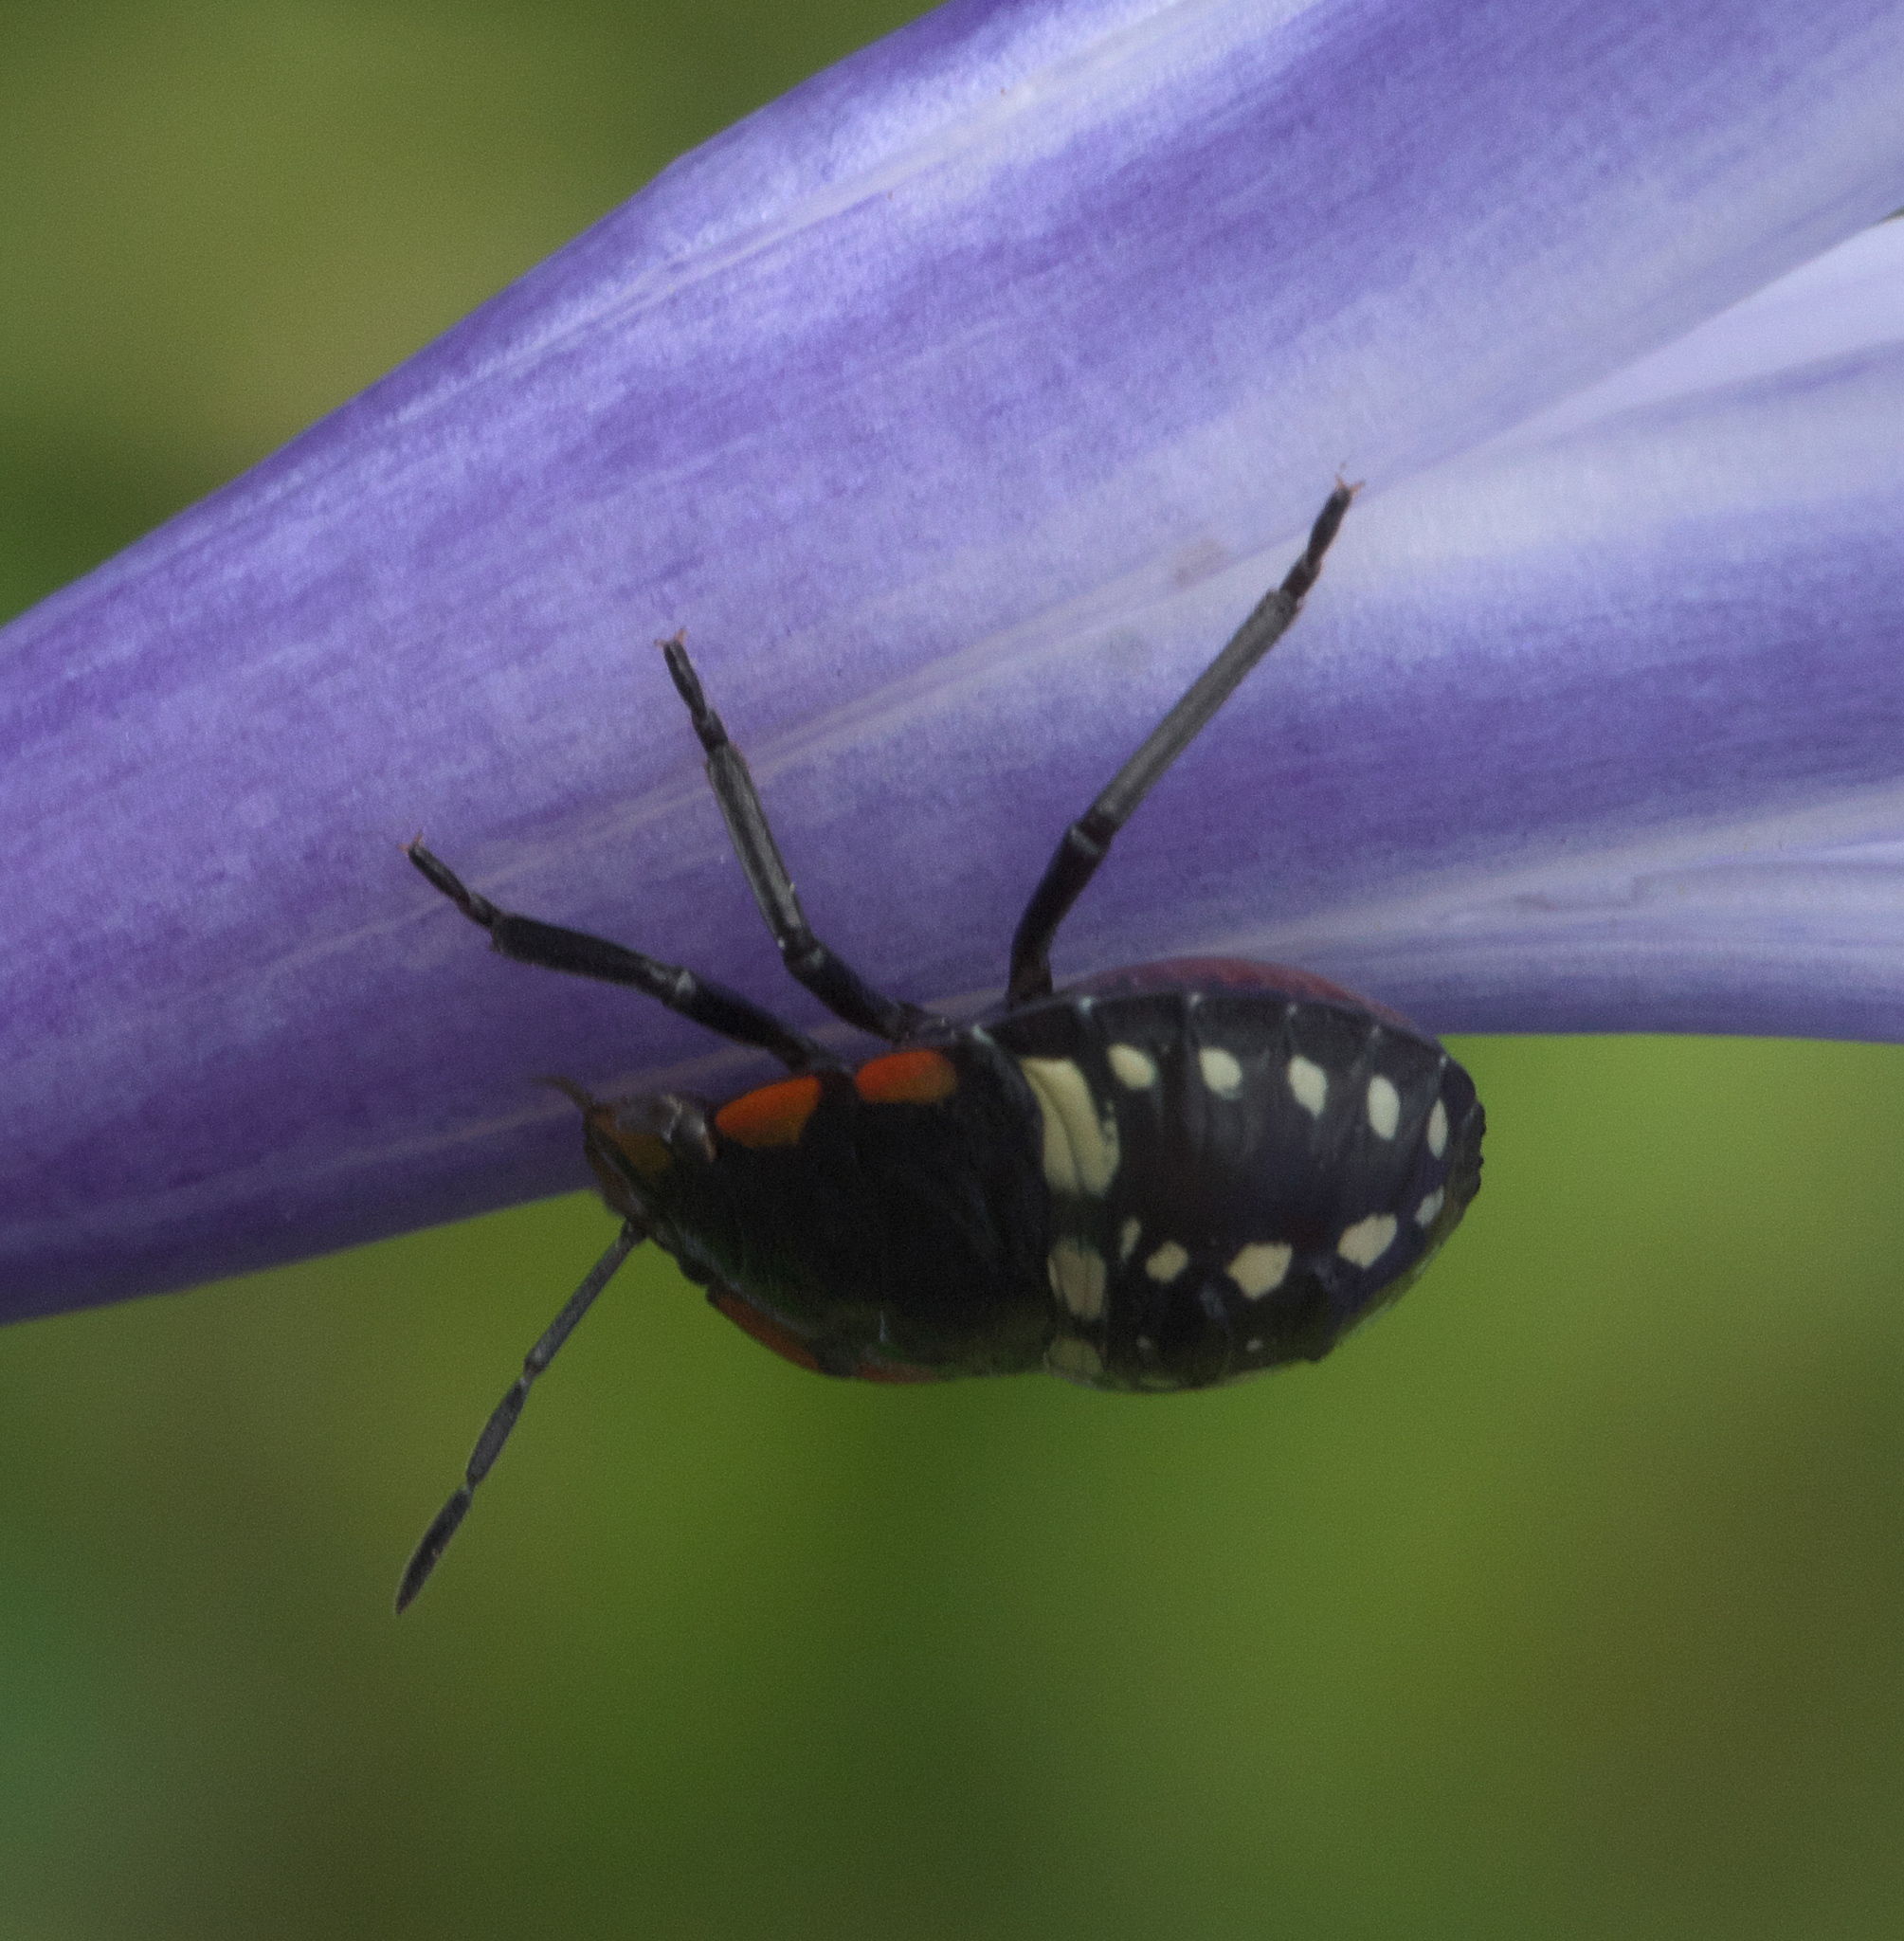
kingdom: Animalia
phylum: Arthropoda
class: Insecta
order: Hemiptera
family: Pentatomidae
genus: Nezara
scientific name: Nezara viridula
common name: Southern green stink bug
